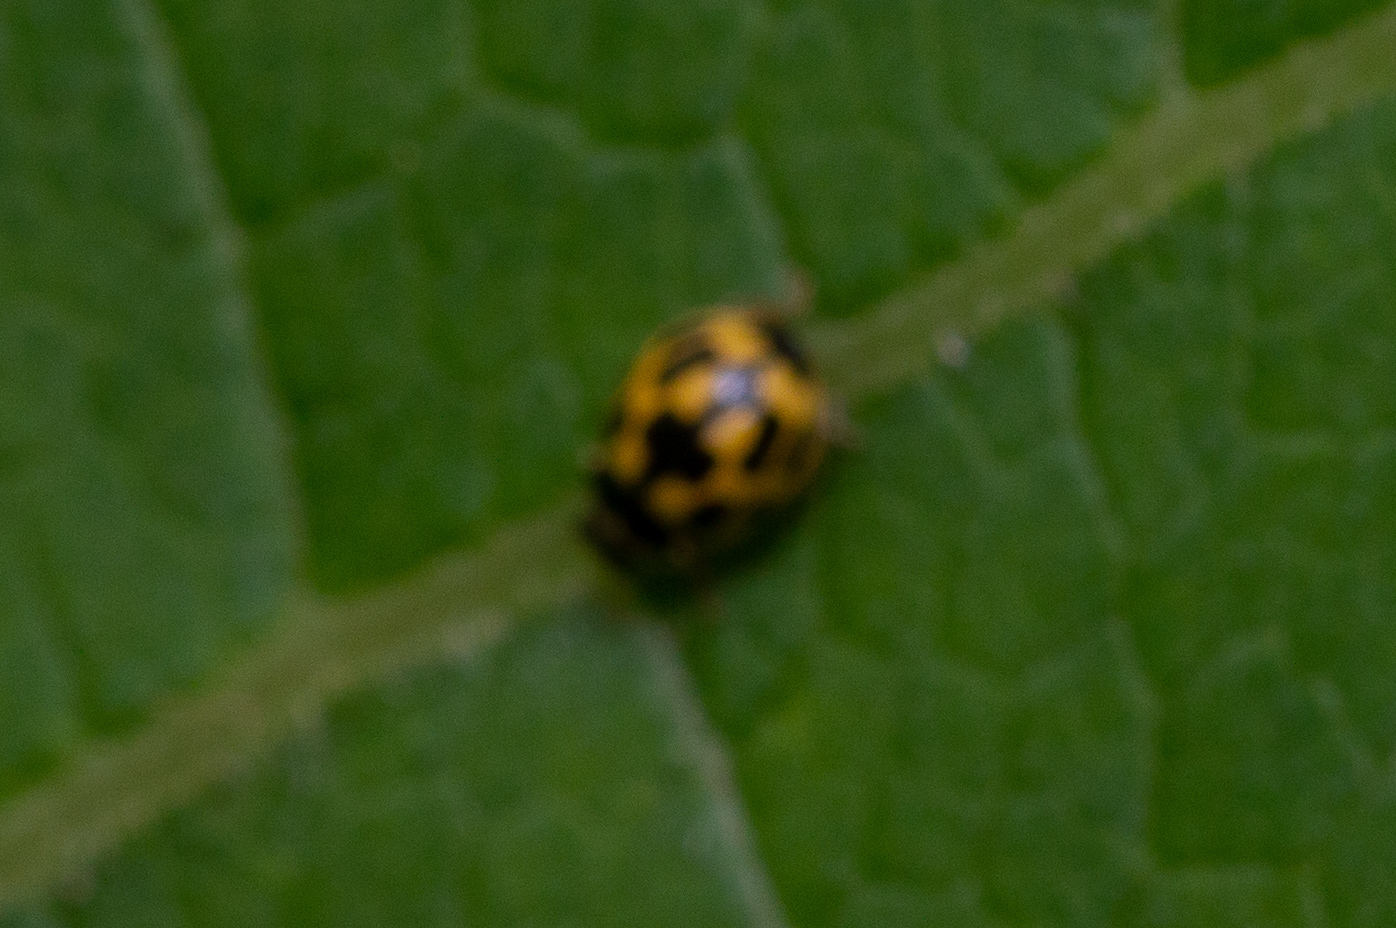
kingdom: Animalia
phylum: Arthropoda
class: Insecta
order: Coleoptera
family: Coccinellidae
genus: Propylaea
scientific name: Propylaea quatuordecimpunctata
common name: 14-spotted ladybird beetle
